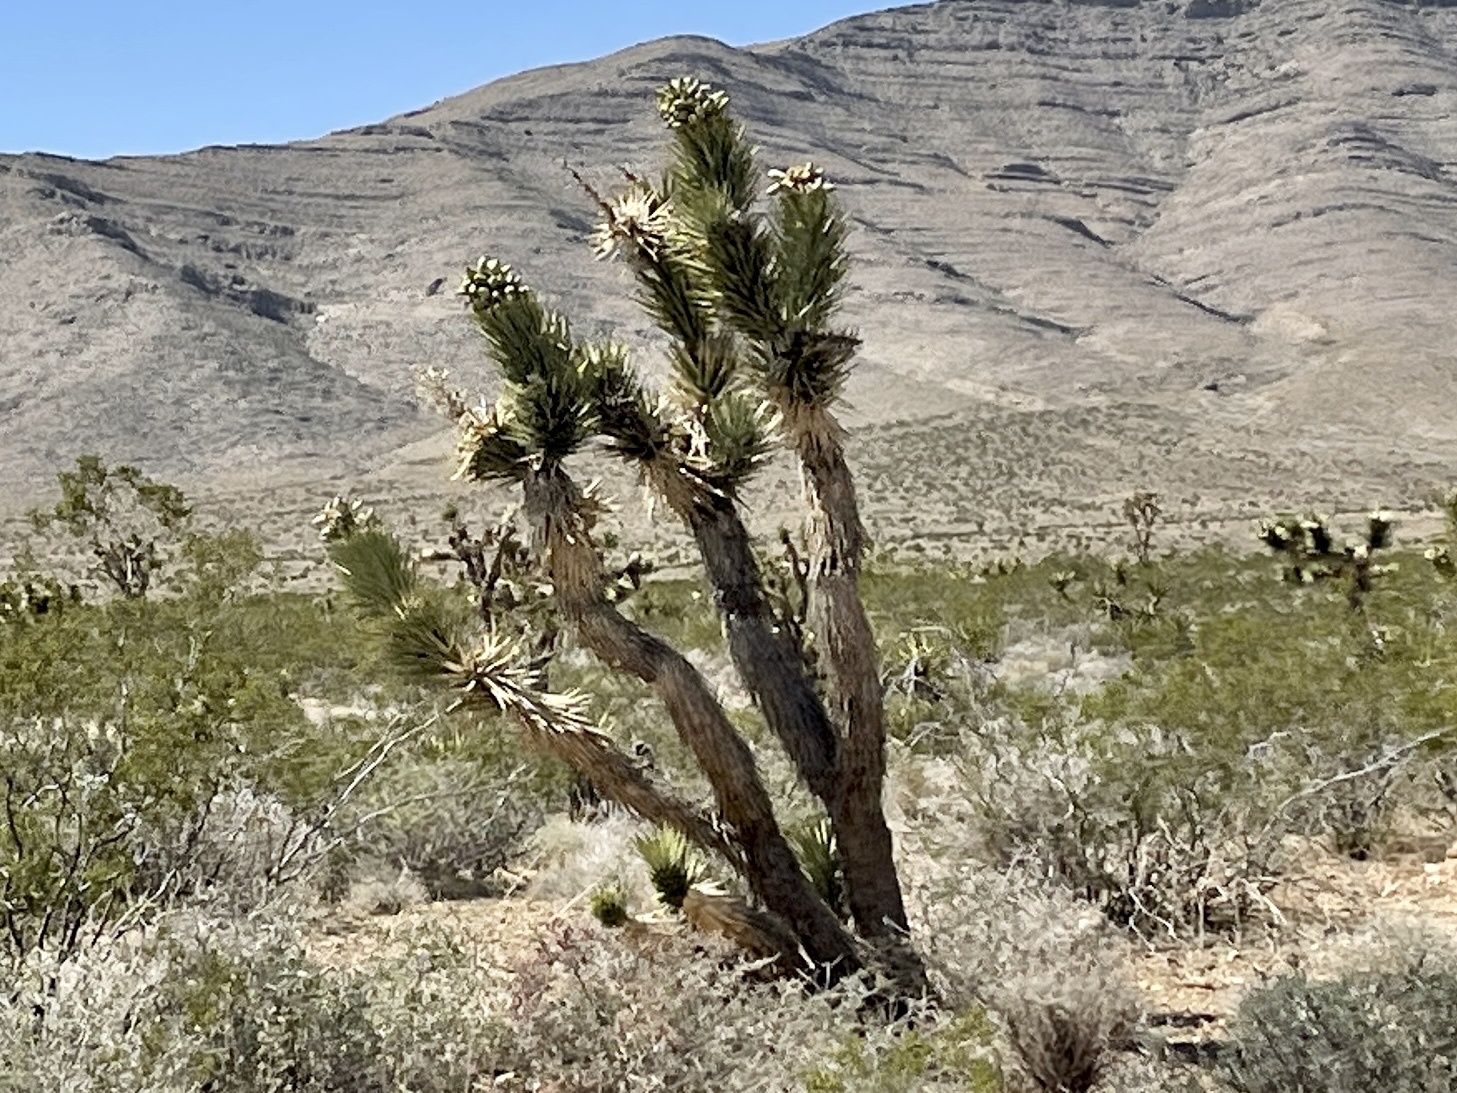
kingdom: Plantae
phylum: Tracheophyta
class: Liliopsida
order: Asparagales
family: Asparagaceae
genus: Yucca
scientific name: Yucca brevifolia
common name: Joshua tree
